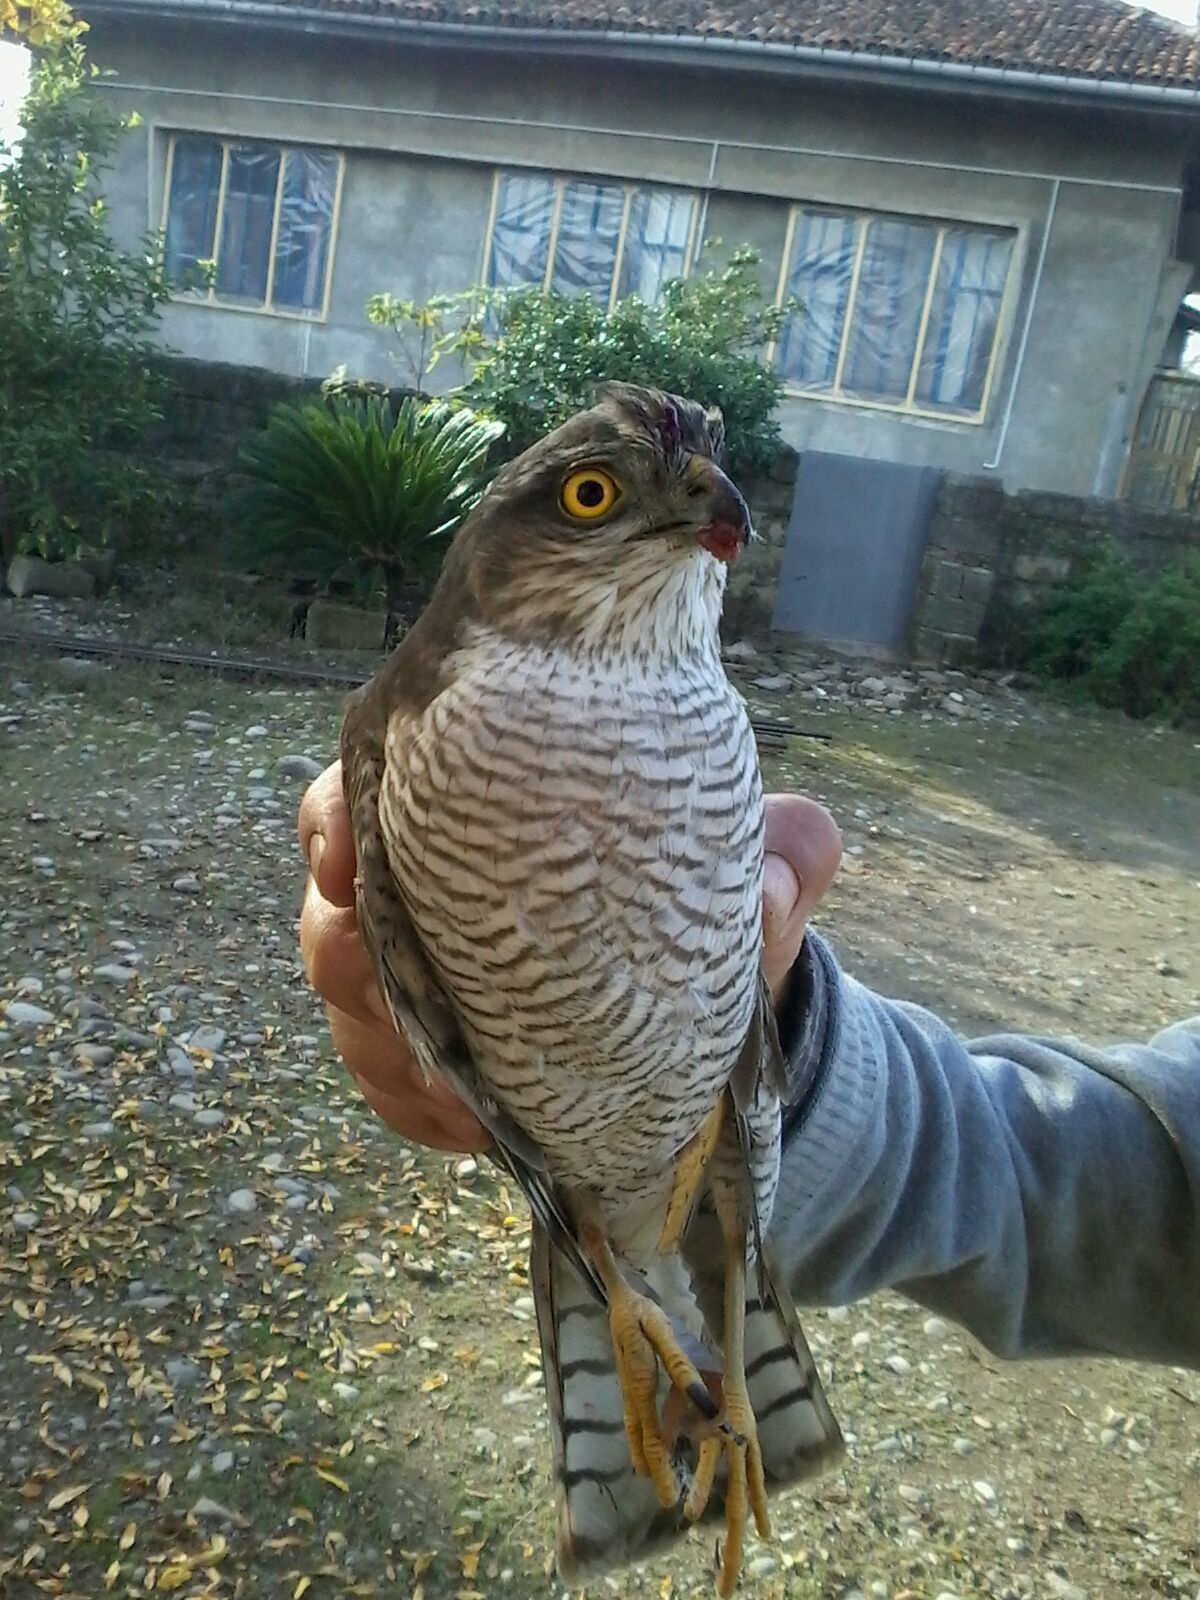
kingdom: Animalia
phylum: Chordata
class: Aves
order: Accipitriformes
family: Accipitridae
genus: Accipiter
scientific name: Accipiter nisus
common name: Eurasian sparrowhawk
